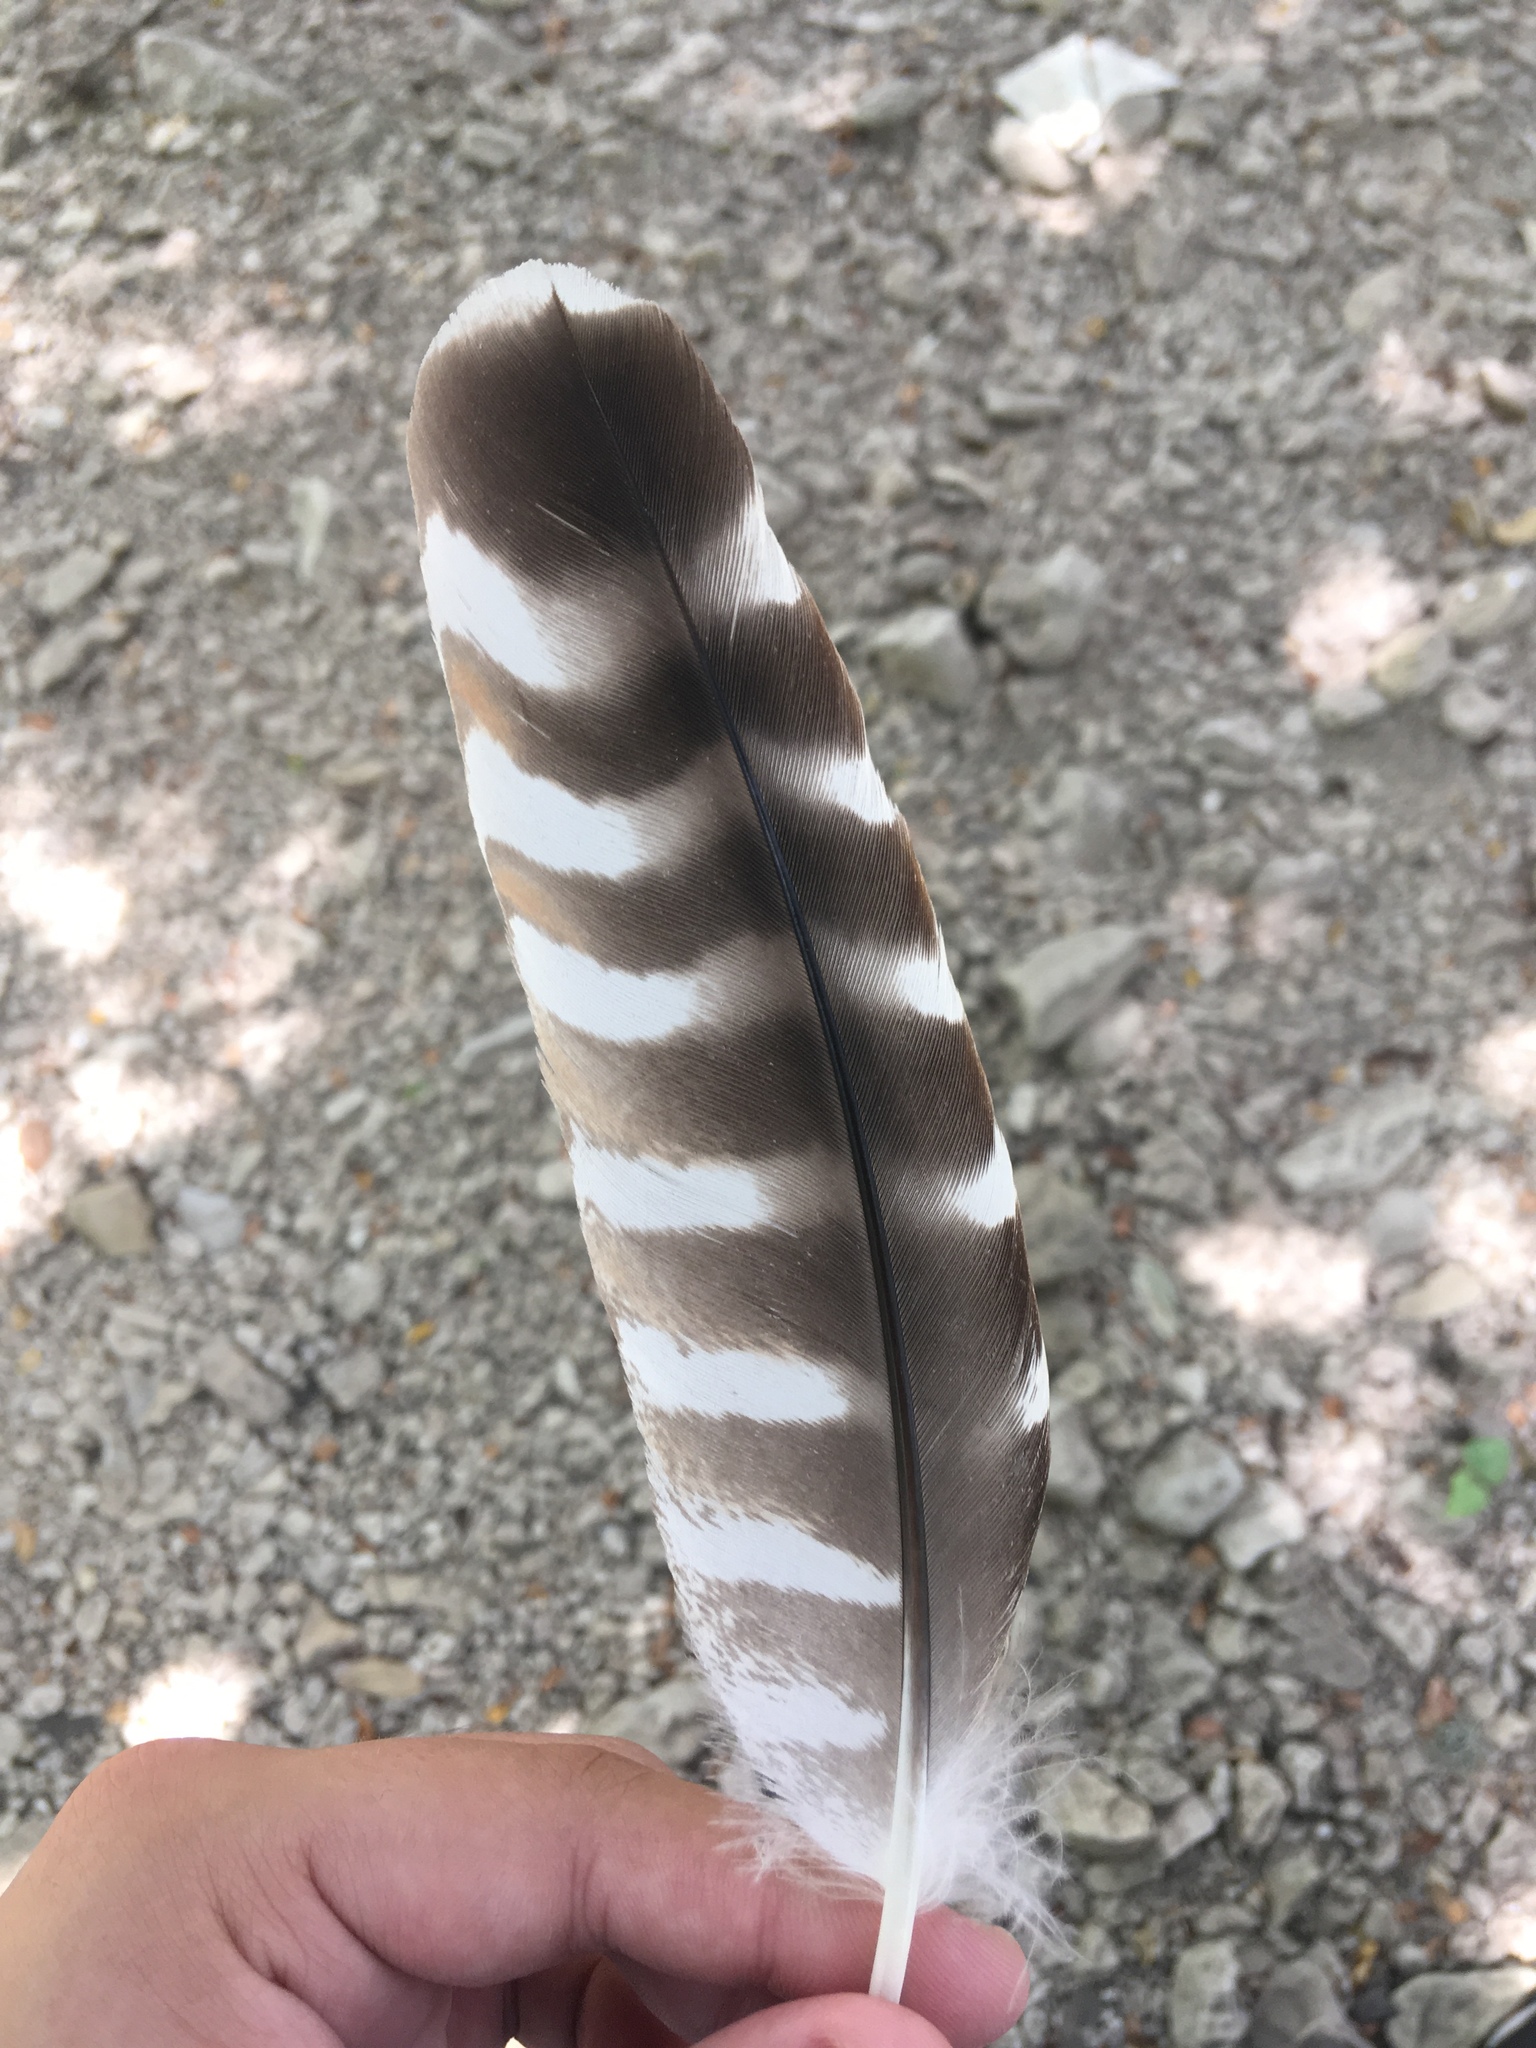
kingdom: Animalia
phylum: Chordata
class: Aves
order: Accipitriformes
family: Accipitridae
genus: Buteo
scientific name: Buteo lineatus
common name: Red-shouldered hawk
